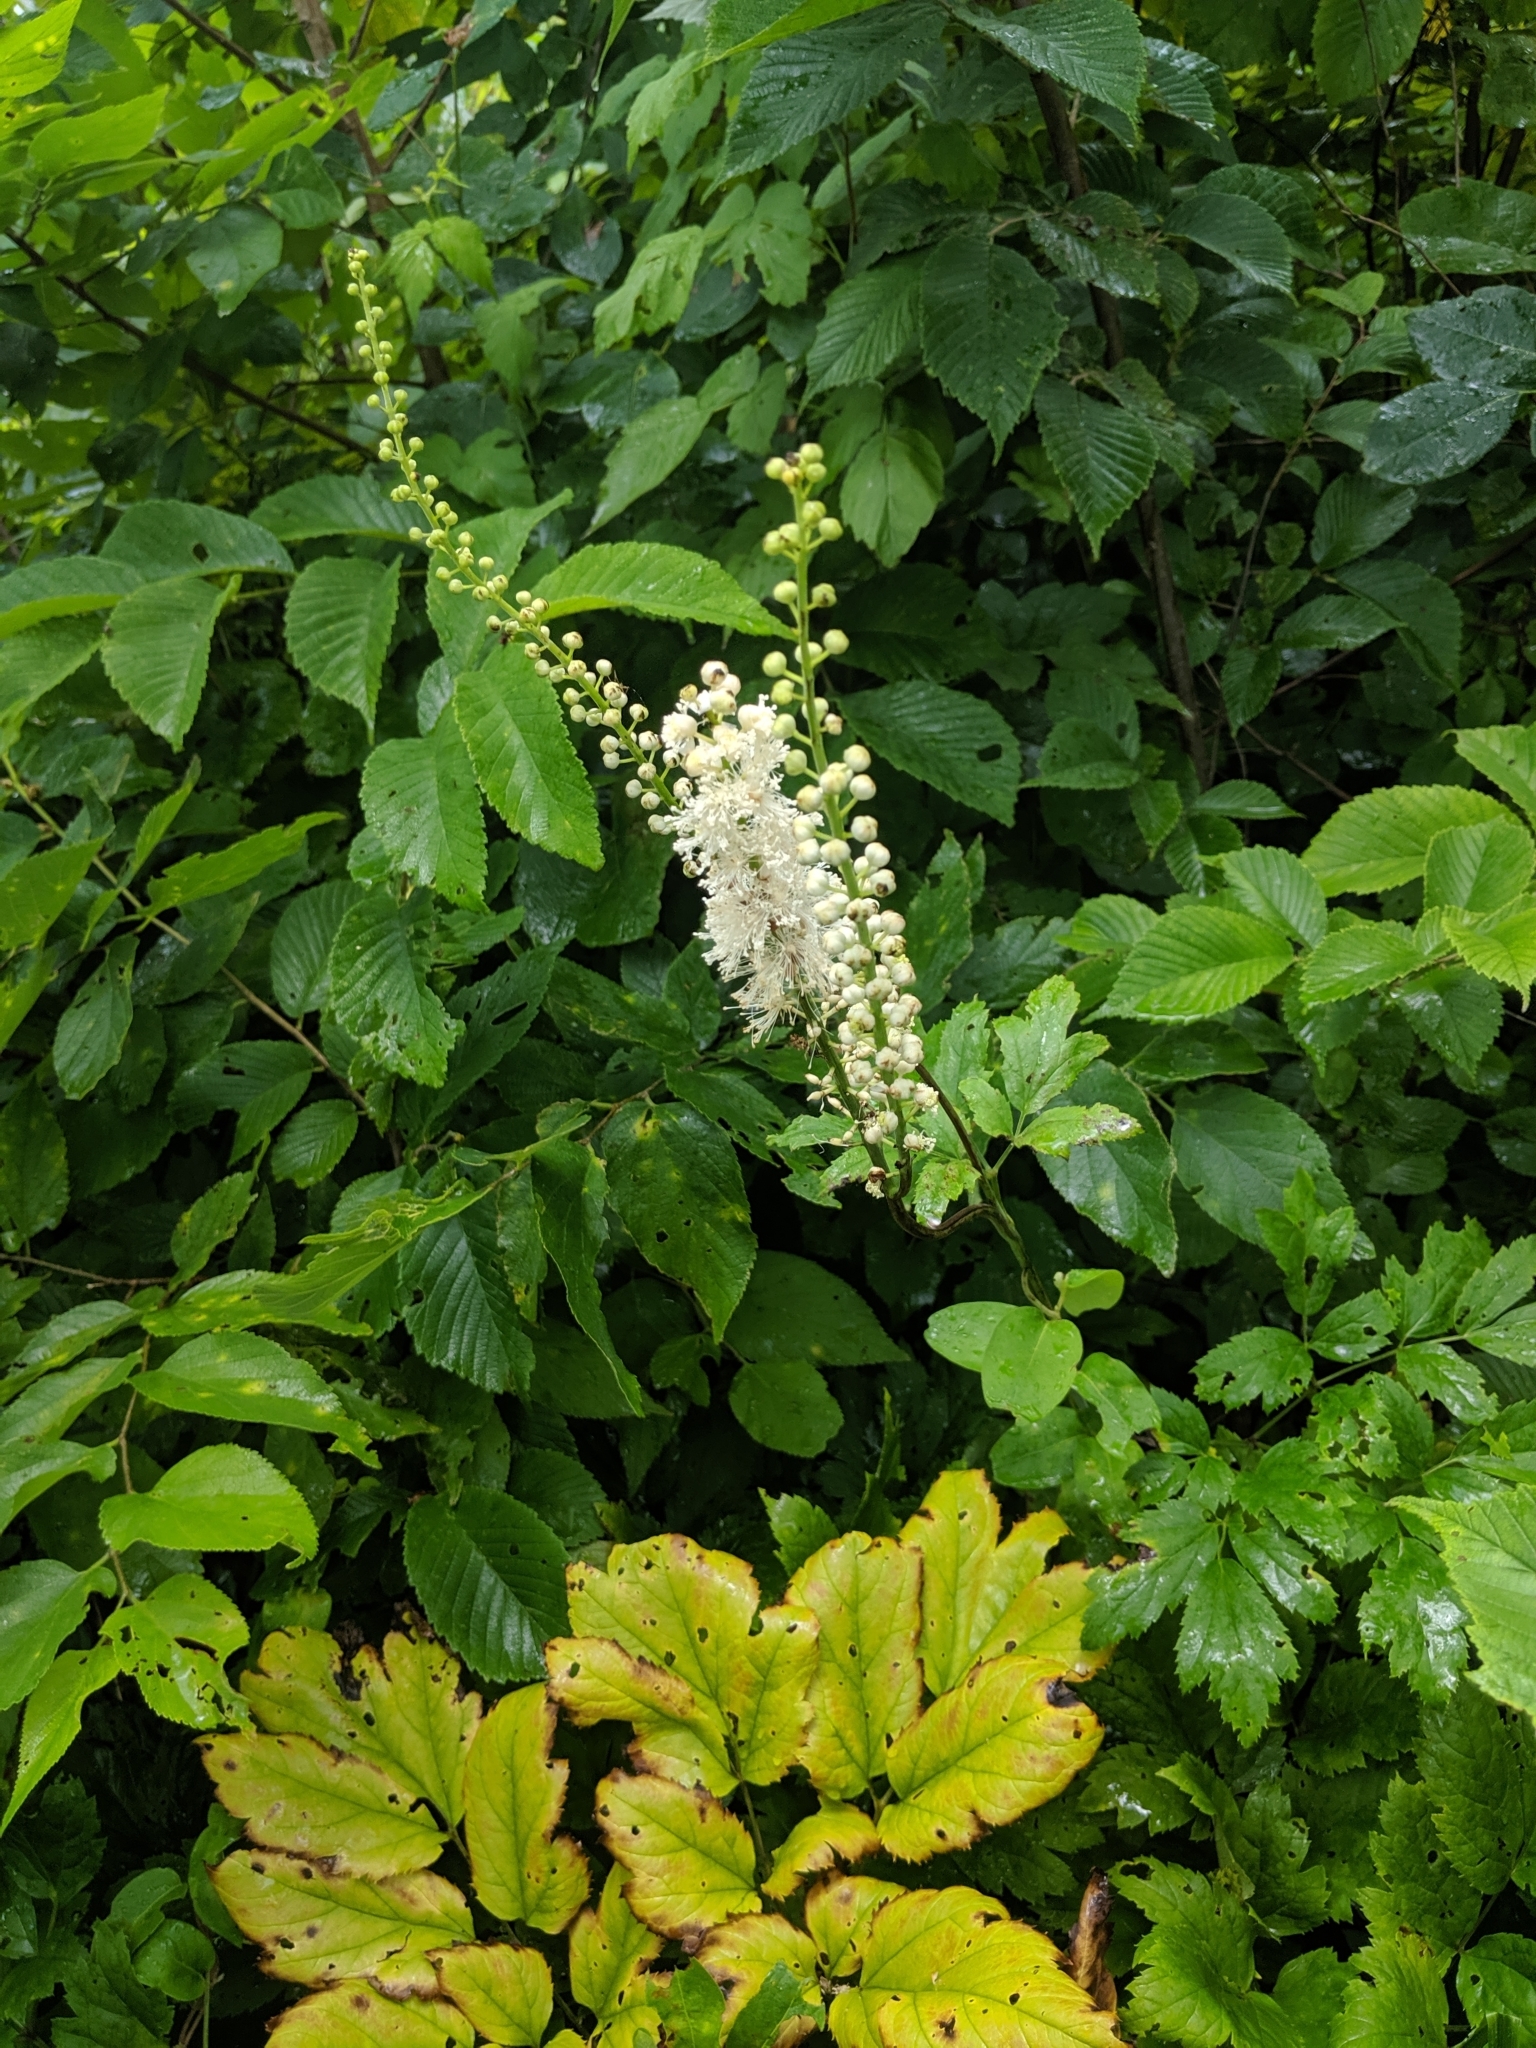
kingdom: Plantae
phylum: Tracheophyta
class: Magnoliopsida
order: Ranunculales
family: Ranunculaceae
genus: Actaea
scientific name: Actaea racemosa
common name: Black cohosh
